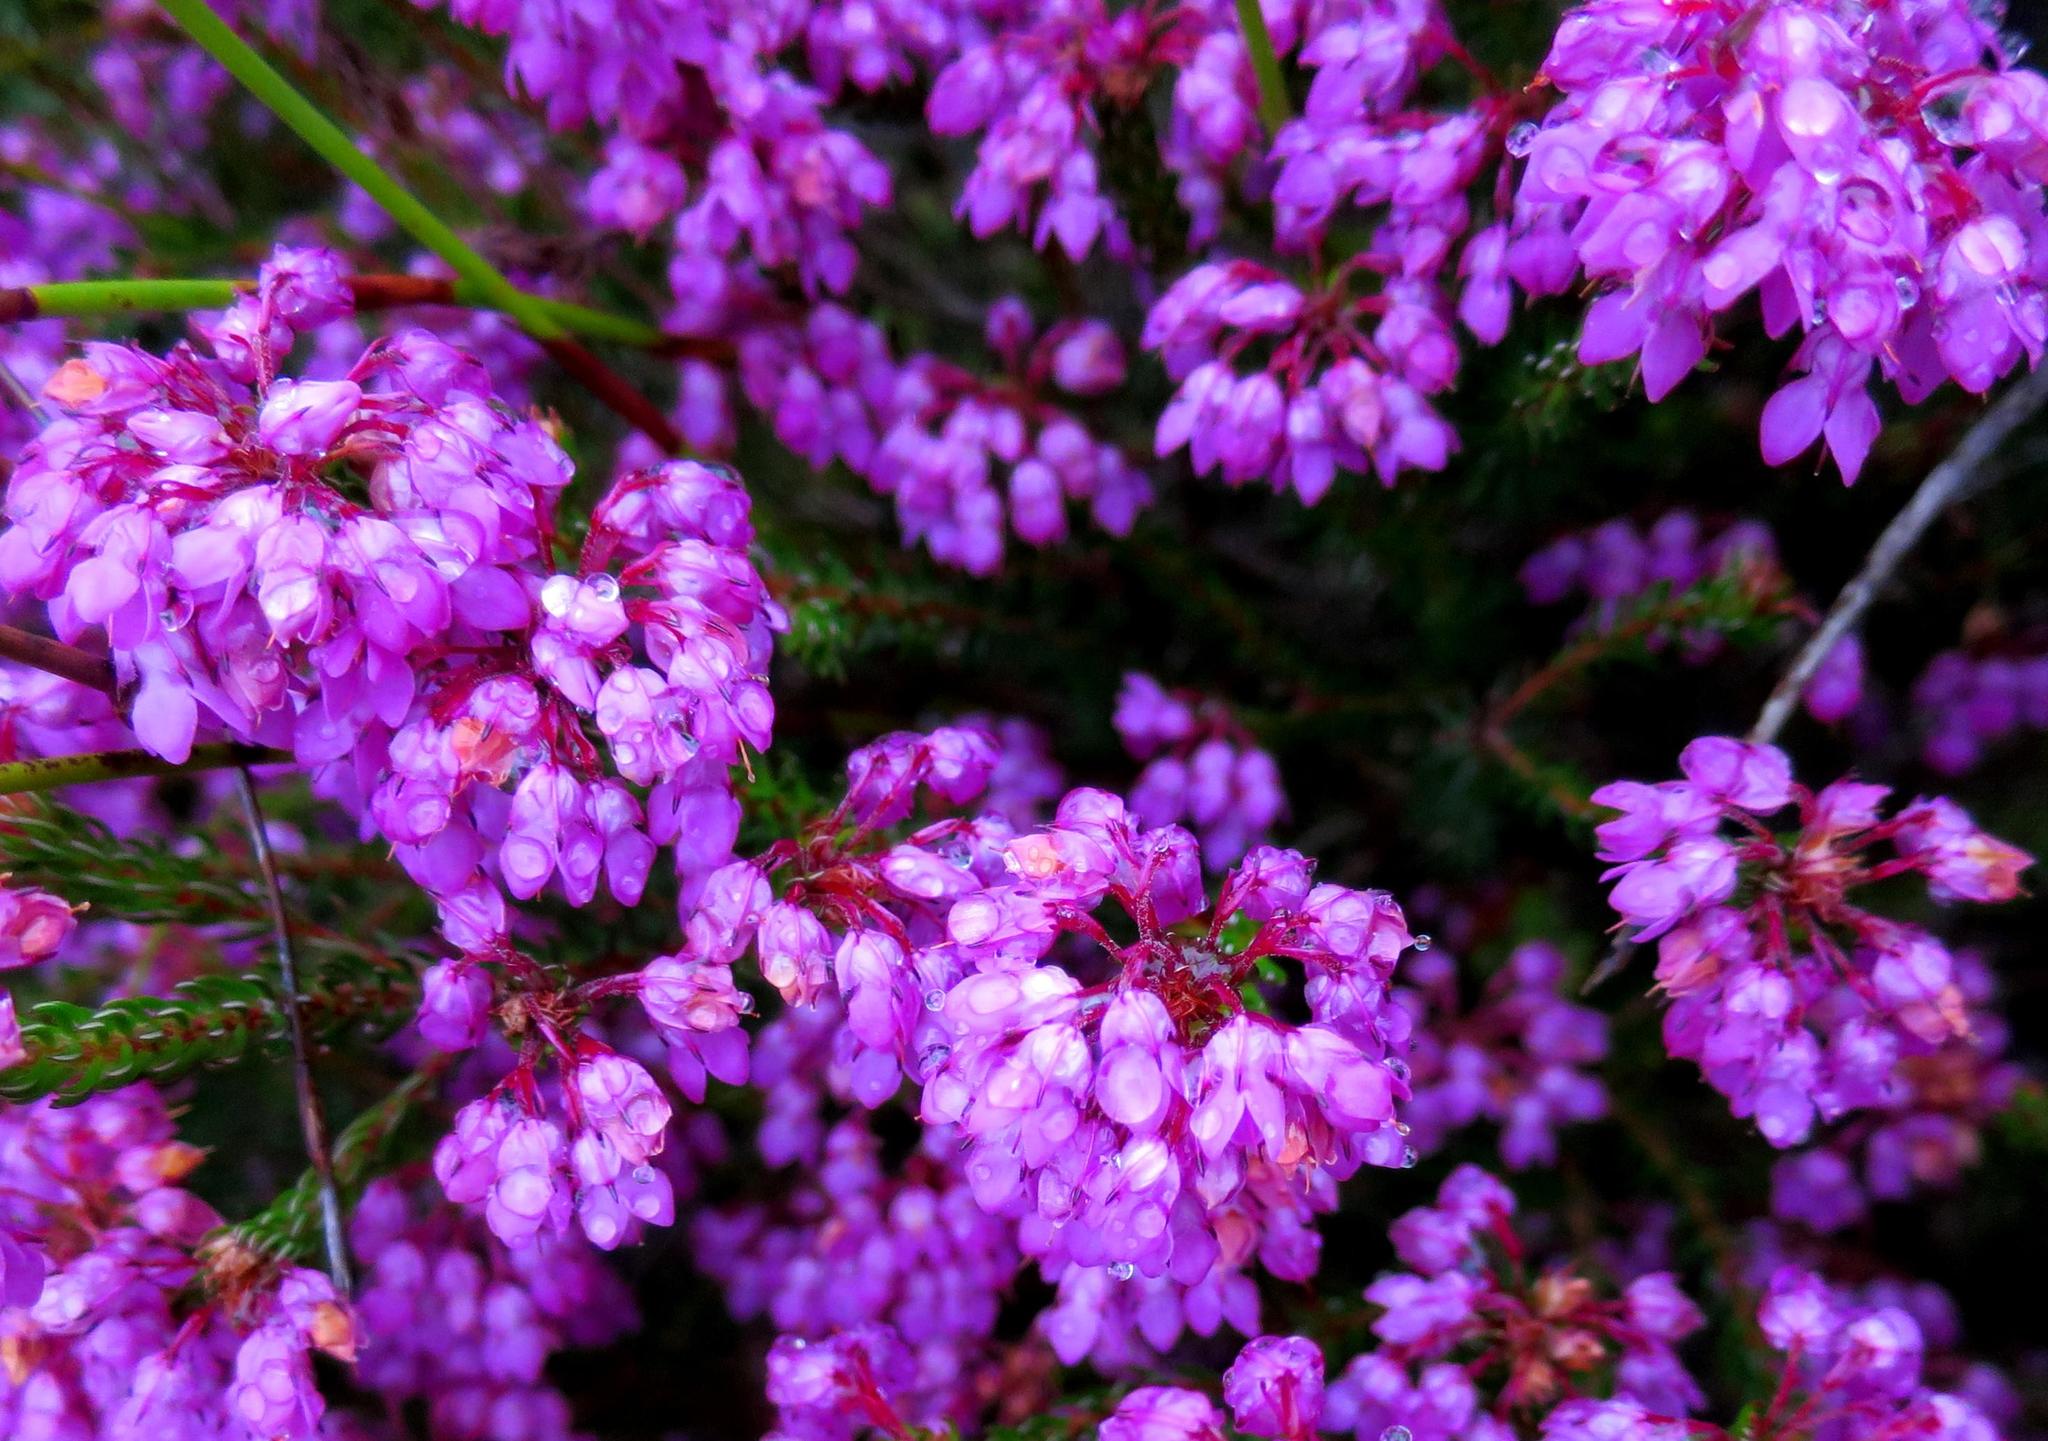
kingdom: Plantae
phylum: Tracheophyta
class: Magnoliopsida
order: Ericales
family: Ericaceae
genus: Erica
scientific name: Erica cubica
